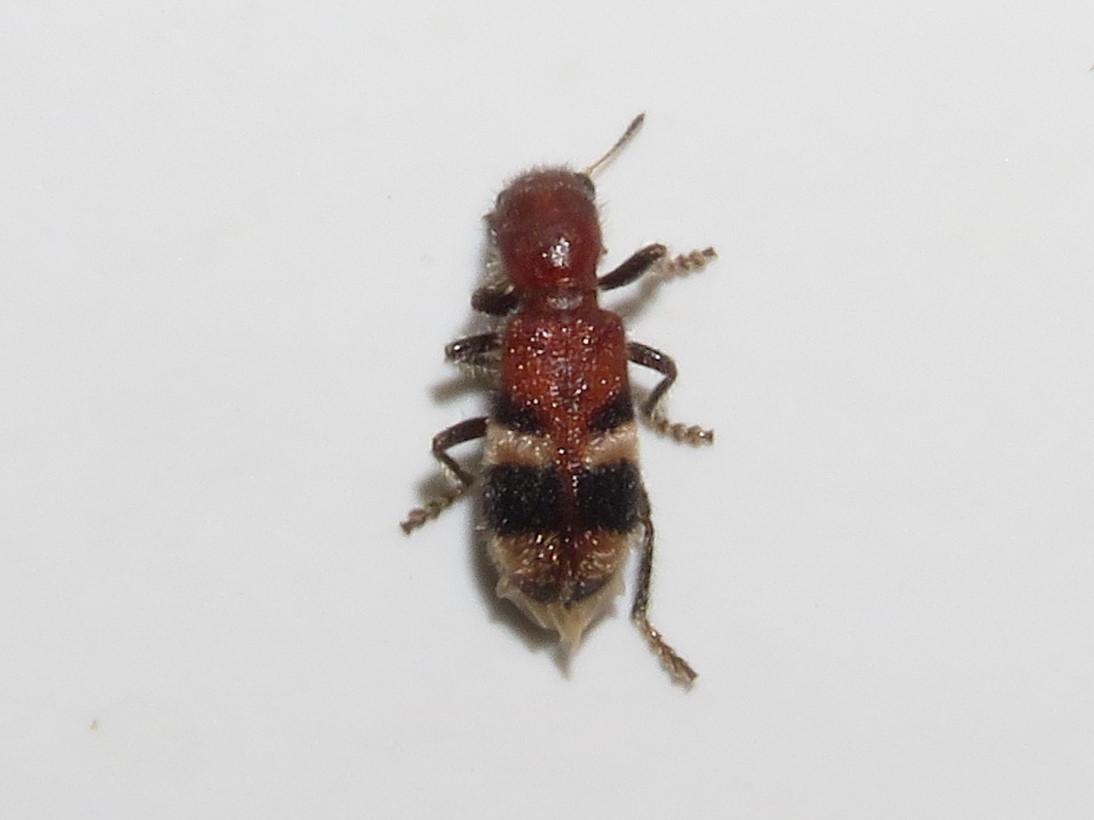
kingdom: Animalia
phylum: Arthropoda
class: Insecta
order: Coleoptera
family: Cleridae
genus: Enoclerus
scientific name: Enoclerus rosmarus
